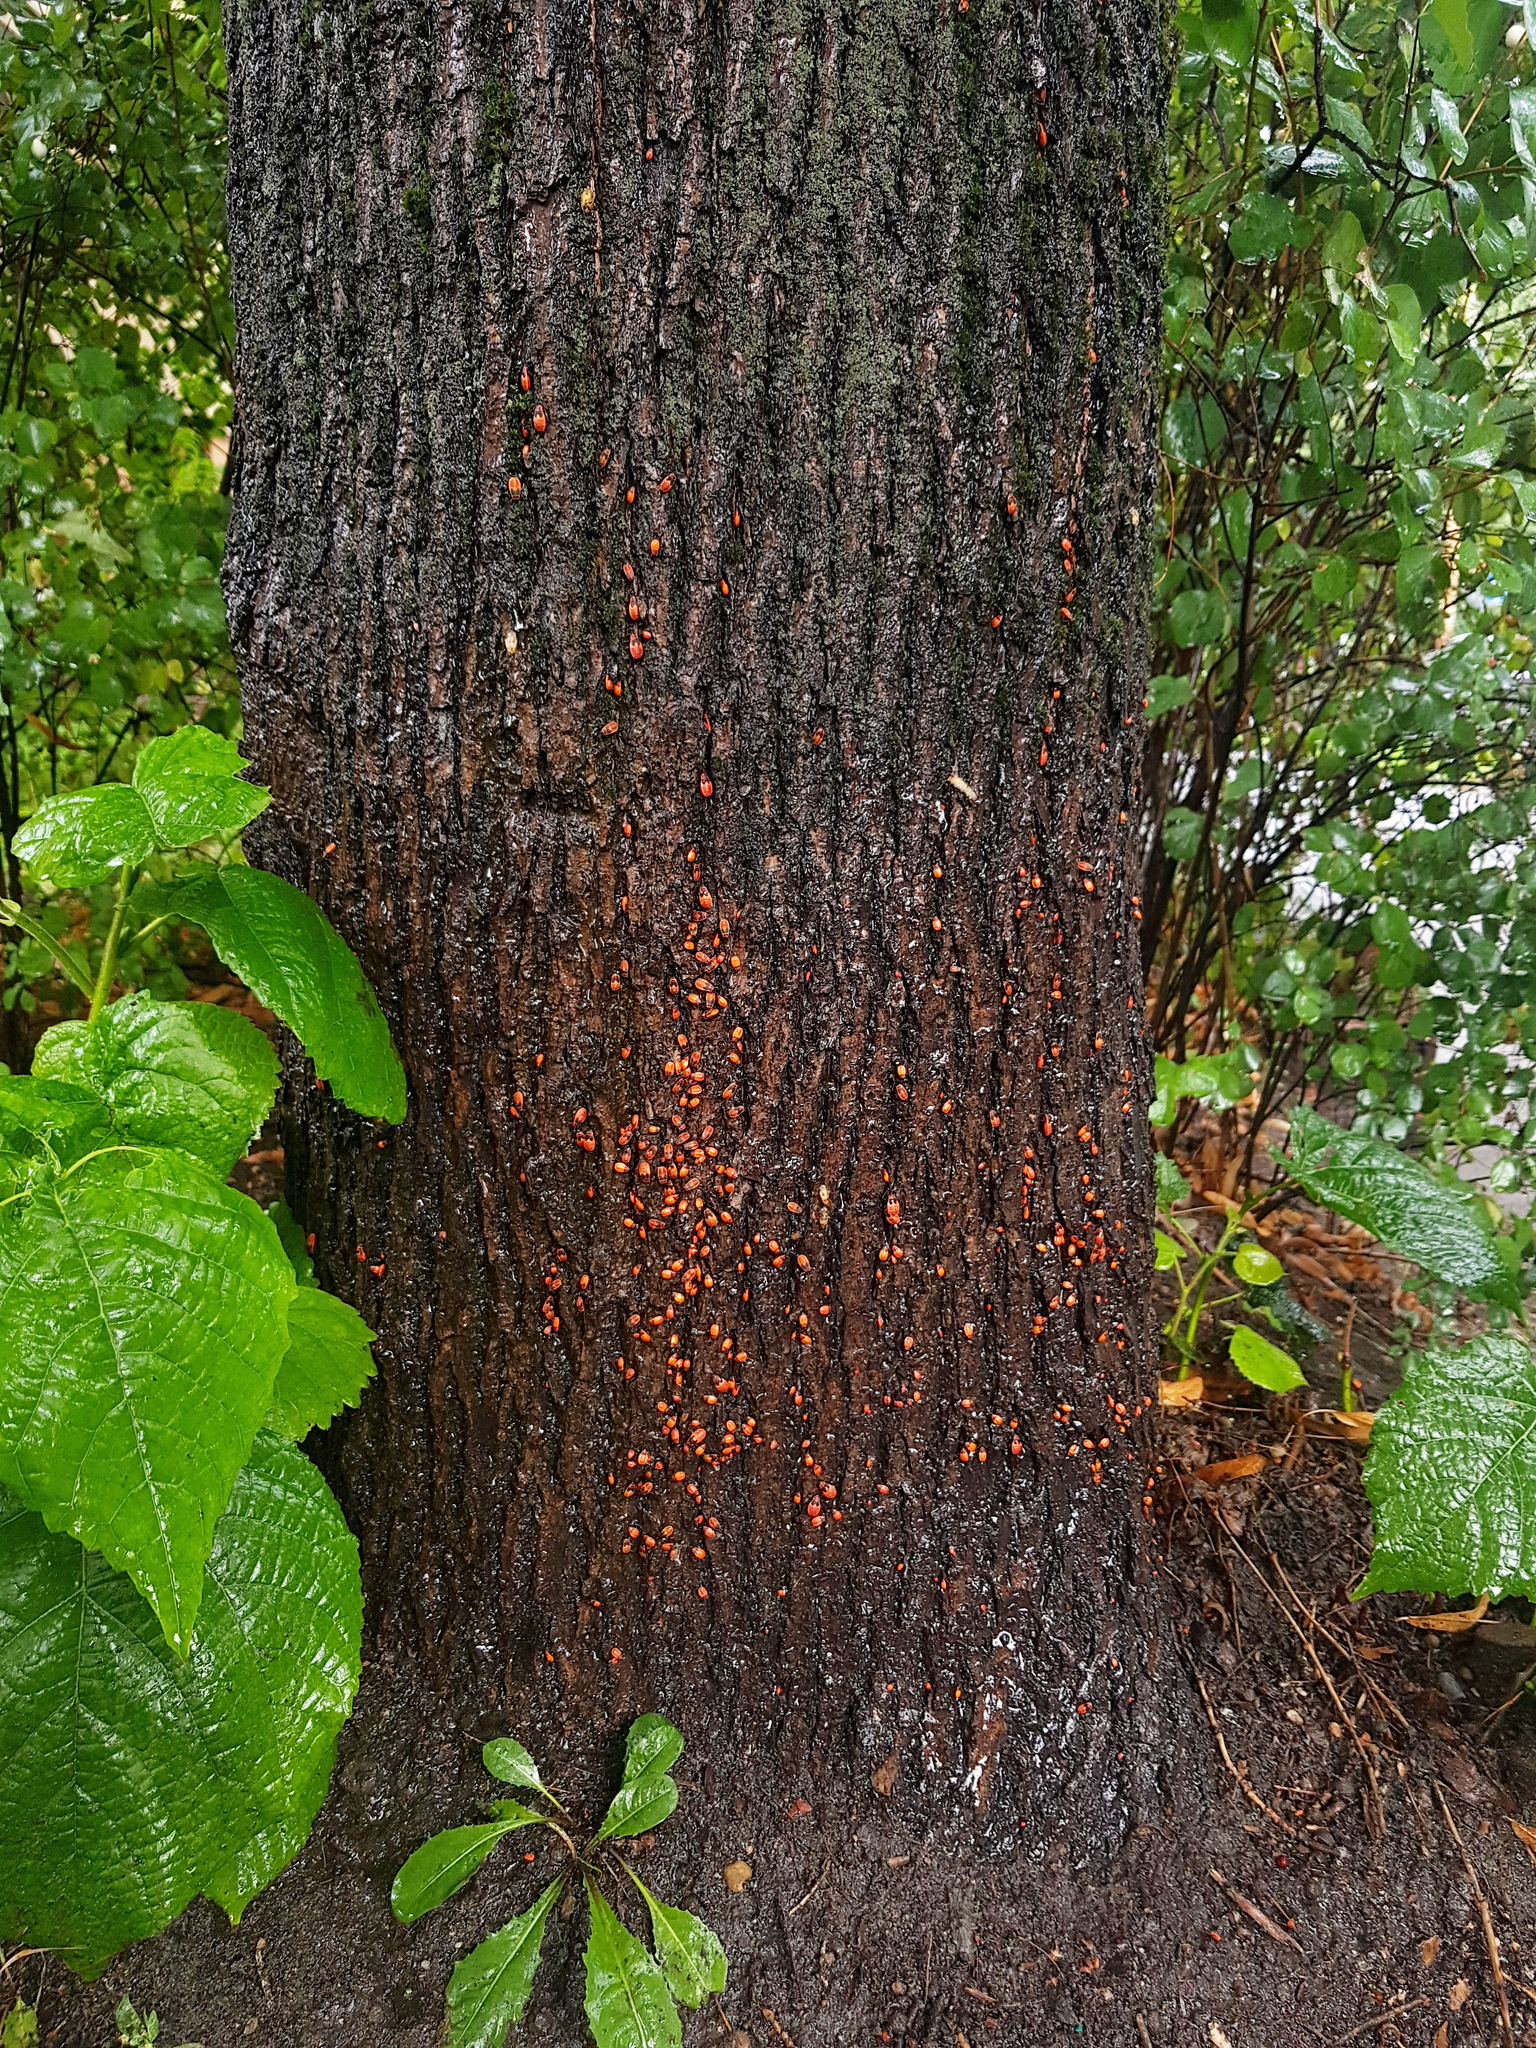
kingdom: Animalia
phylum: Arthropoda
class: Insecta
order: Hemiptera
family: Pyrrhocoridae
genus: Pyrrhocoris
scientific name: Pyrrhocoris apterus
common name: Firebug
